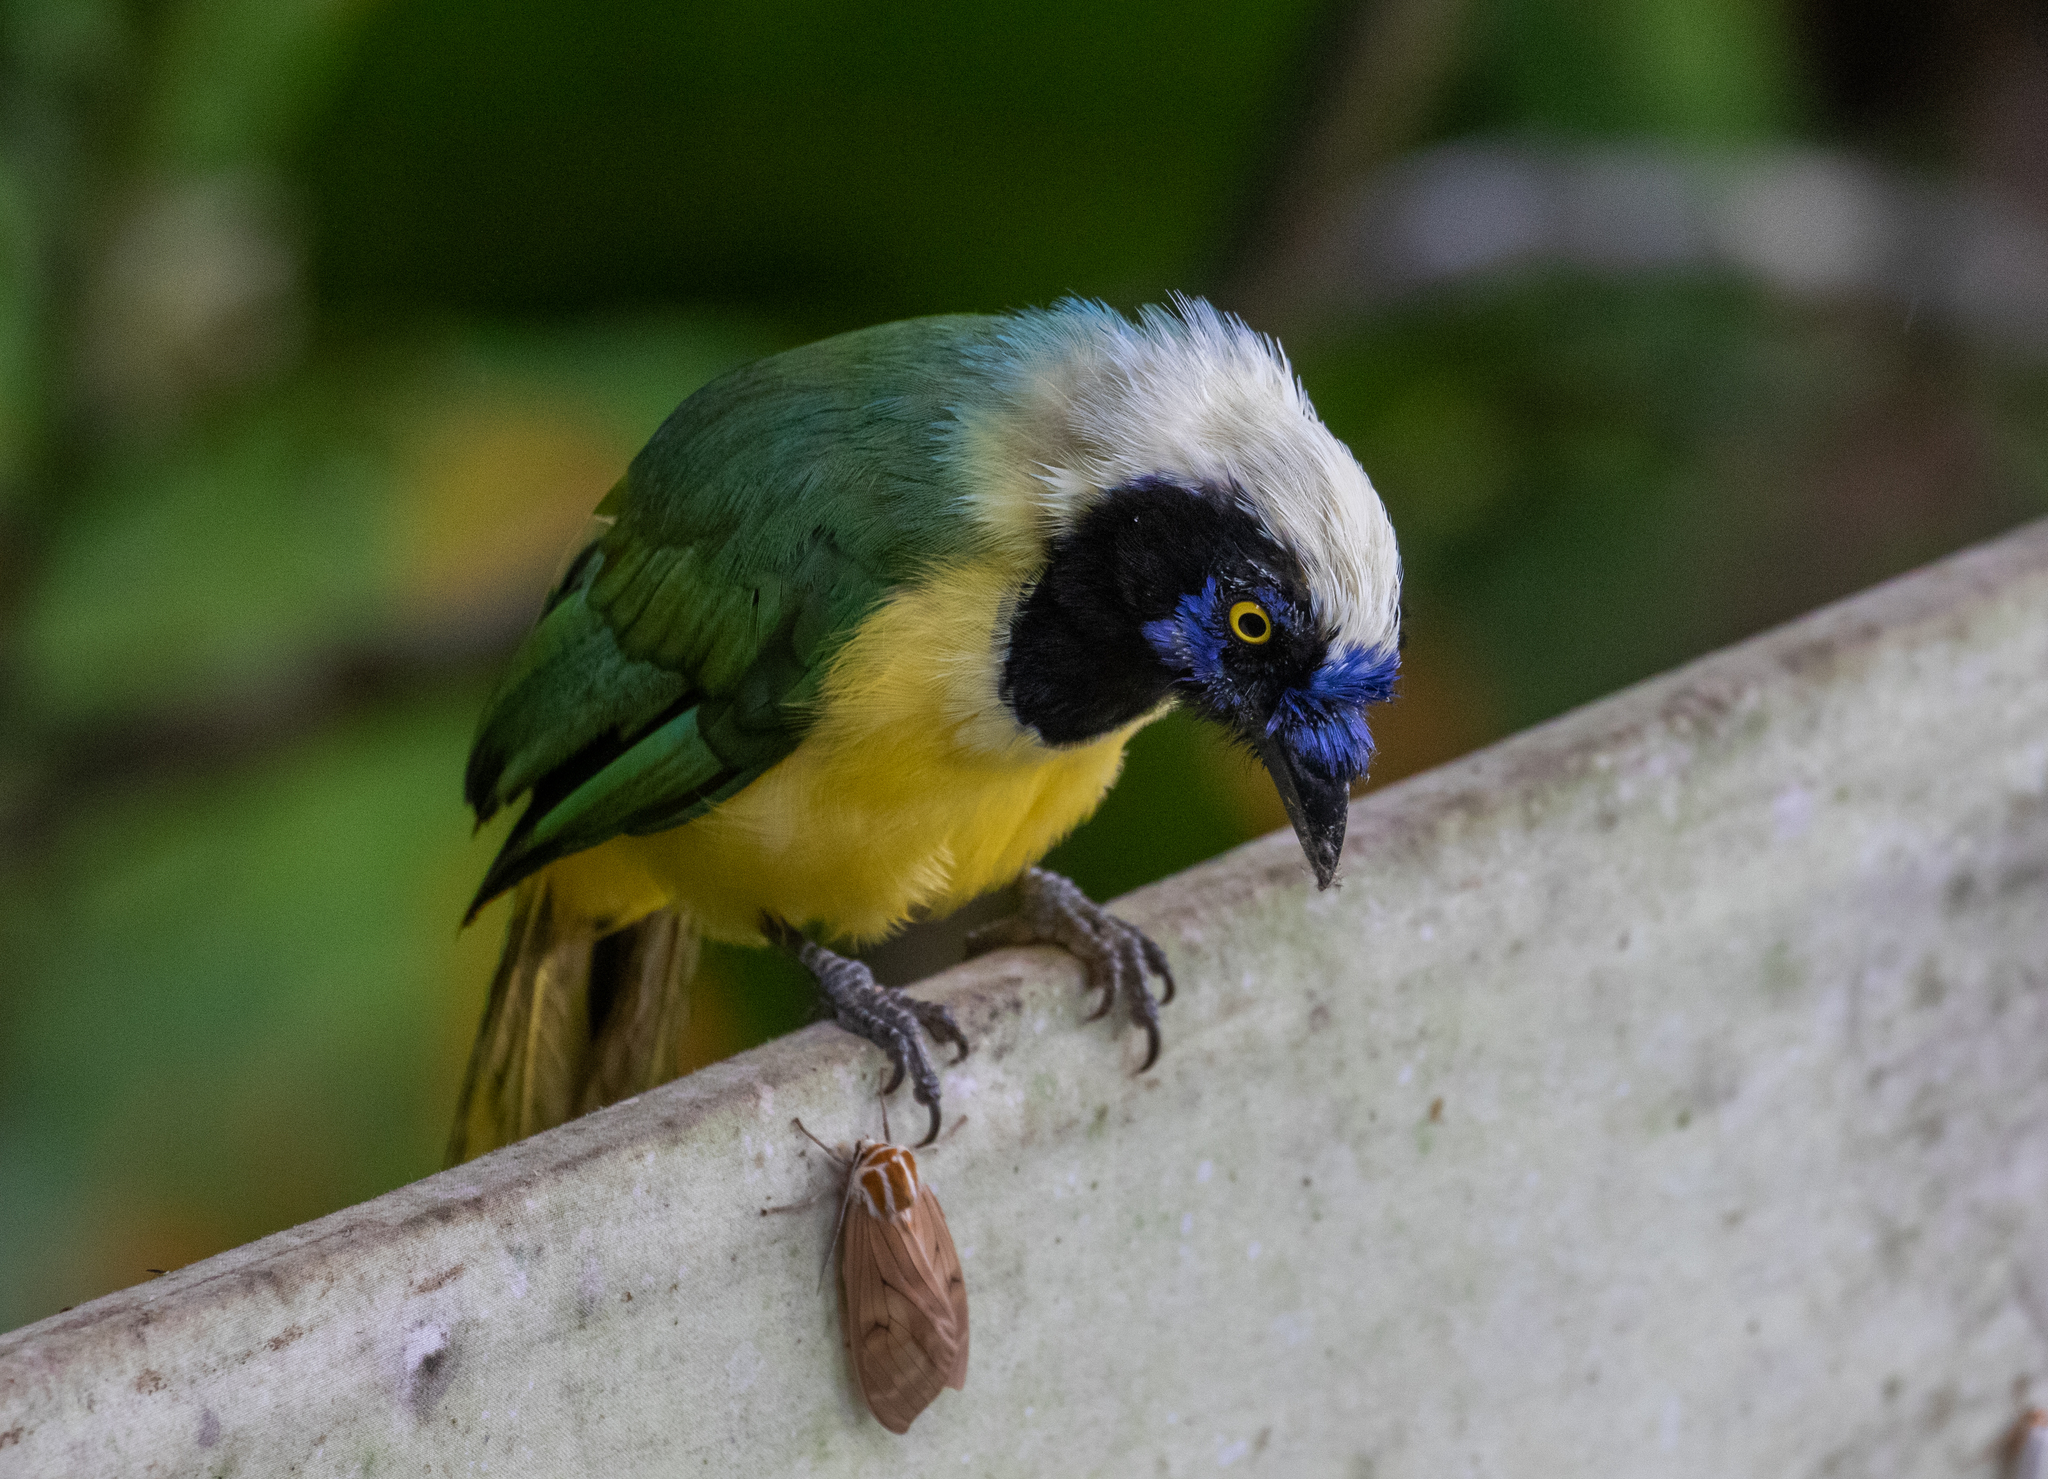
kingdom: Animalia
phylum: Chordata
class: Aves
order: Passeriformes
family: Corvidae
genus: Cyanocorax
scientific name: Cyanocorax yncas
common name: Green jay
